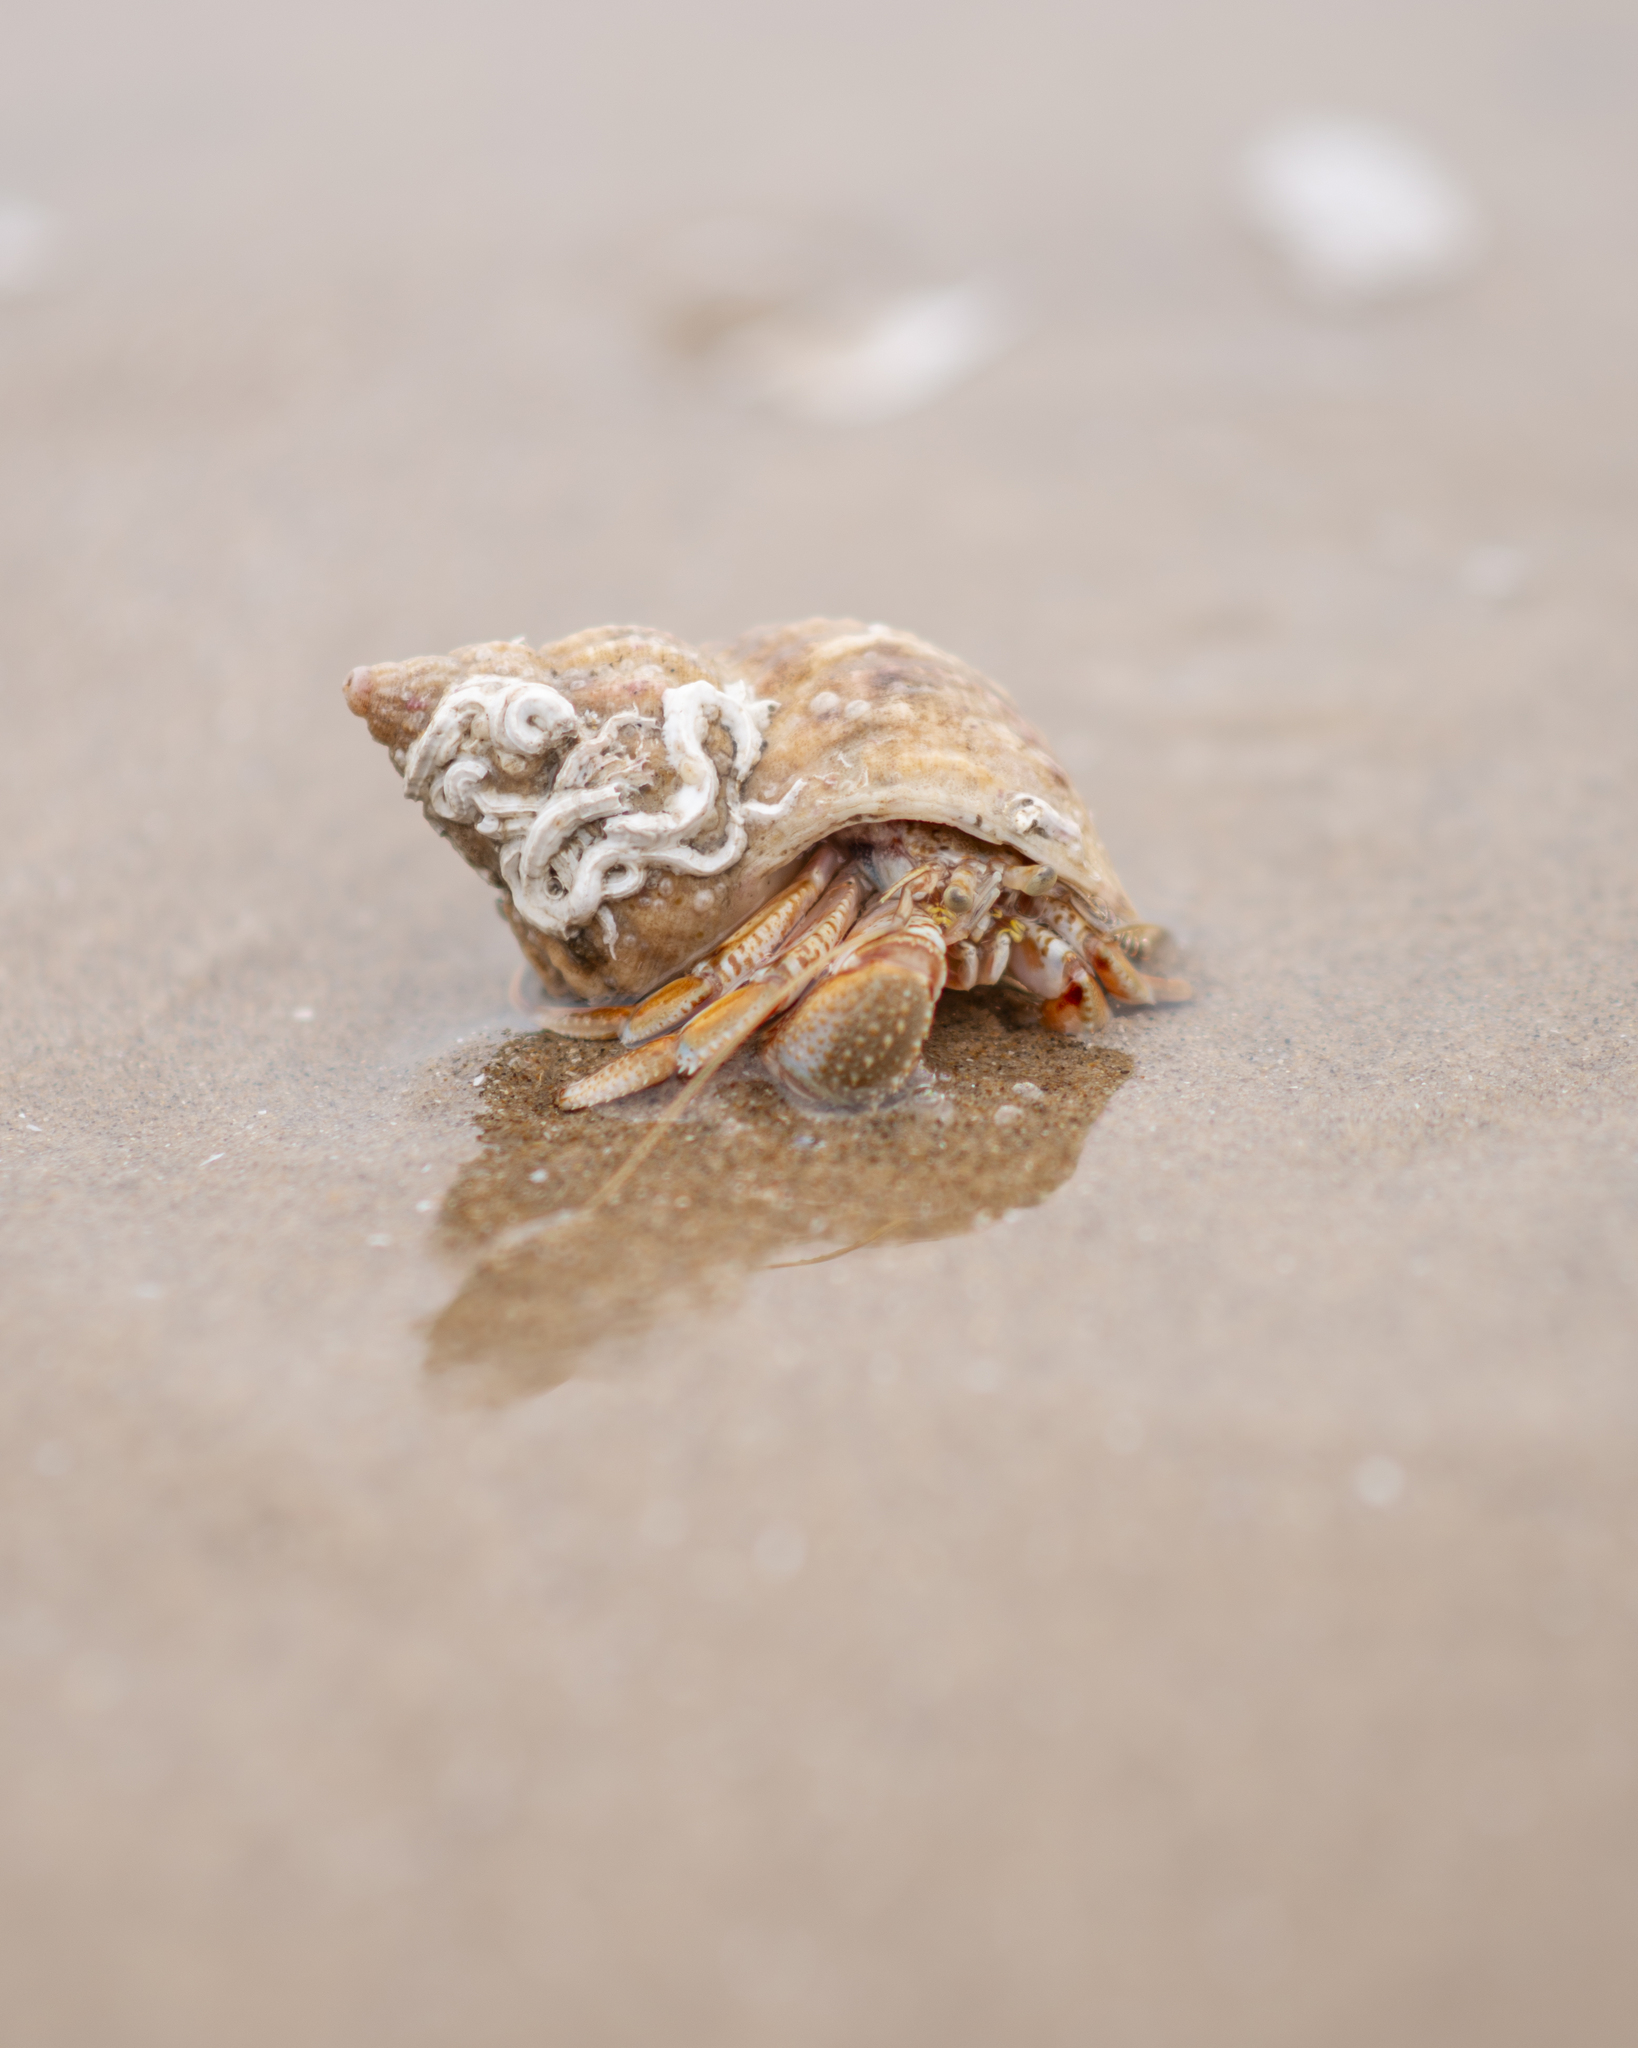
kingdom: Animalia
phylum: Arthropoda
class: Malacostraca
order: Decapoda
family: Paguridae
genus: Pagurus
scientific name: Pagurus bernhardus
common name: Hermit crab
